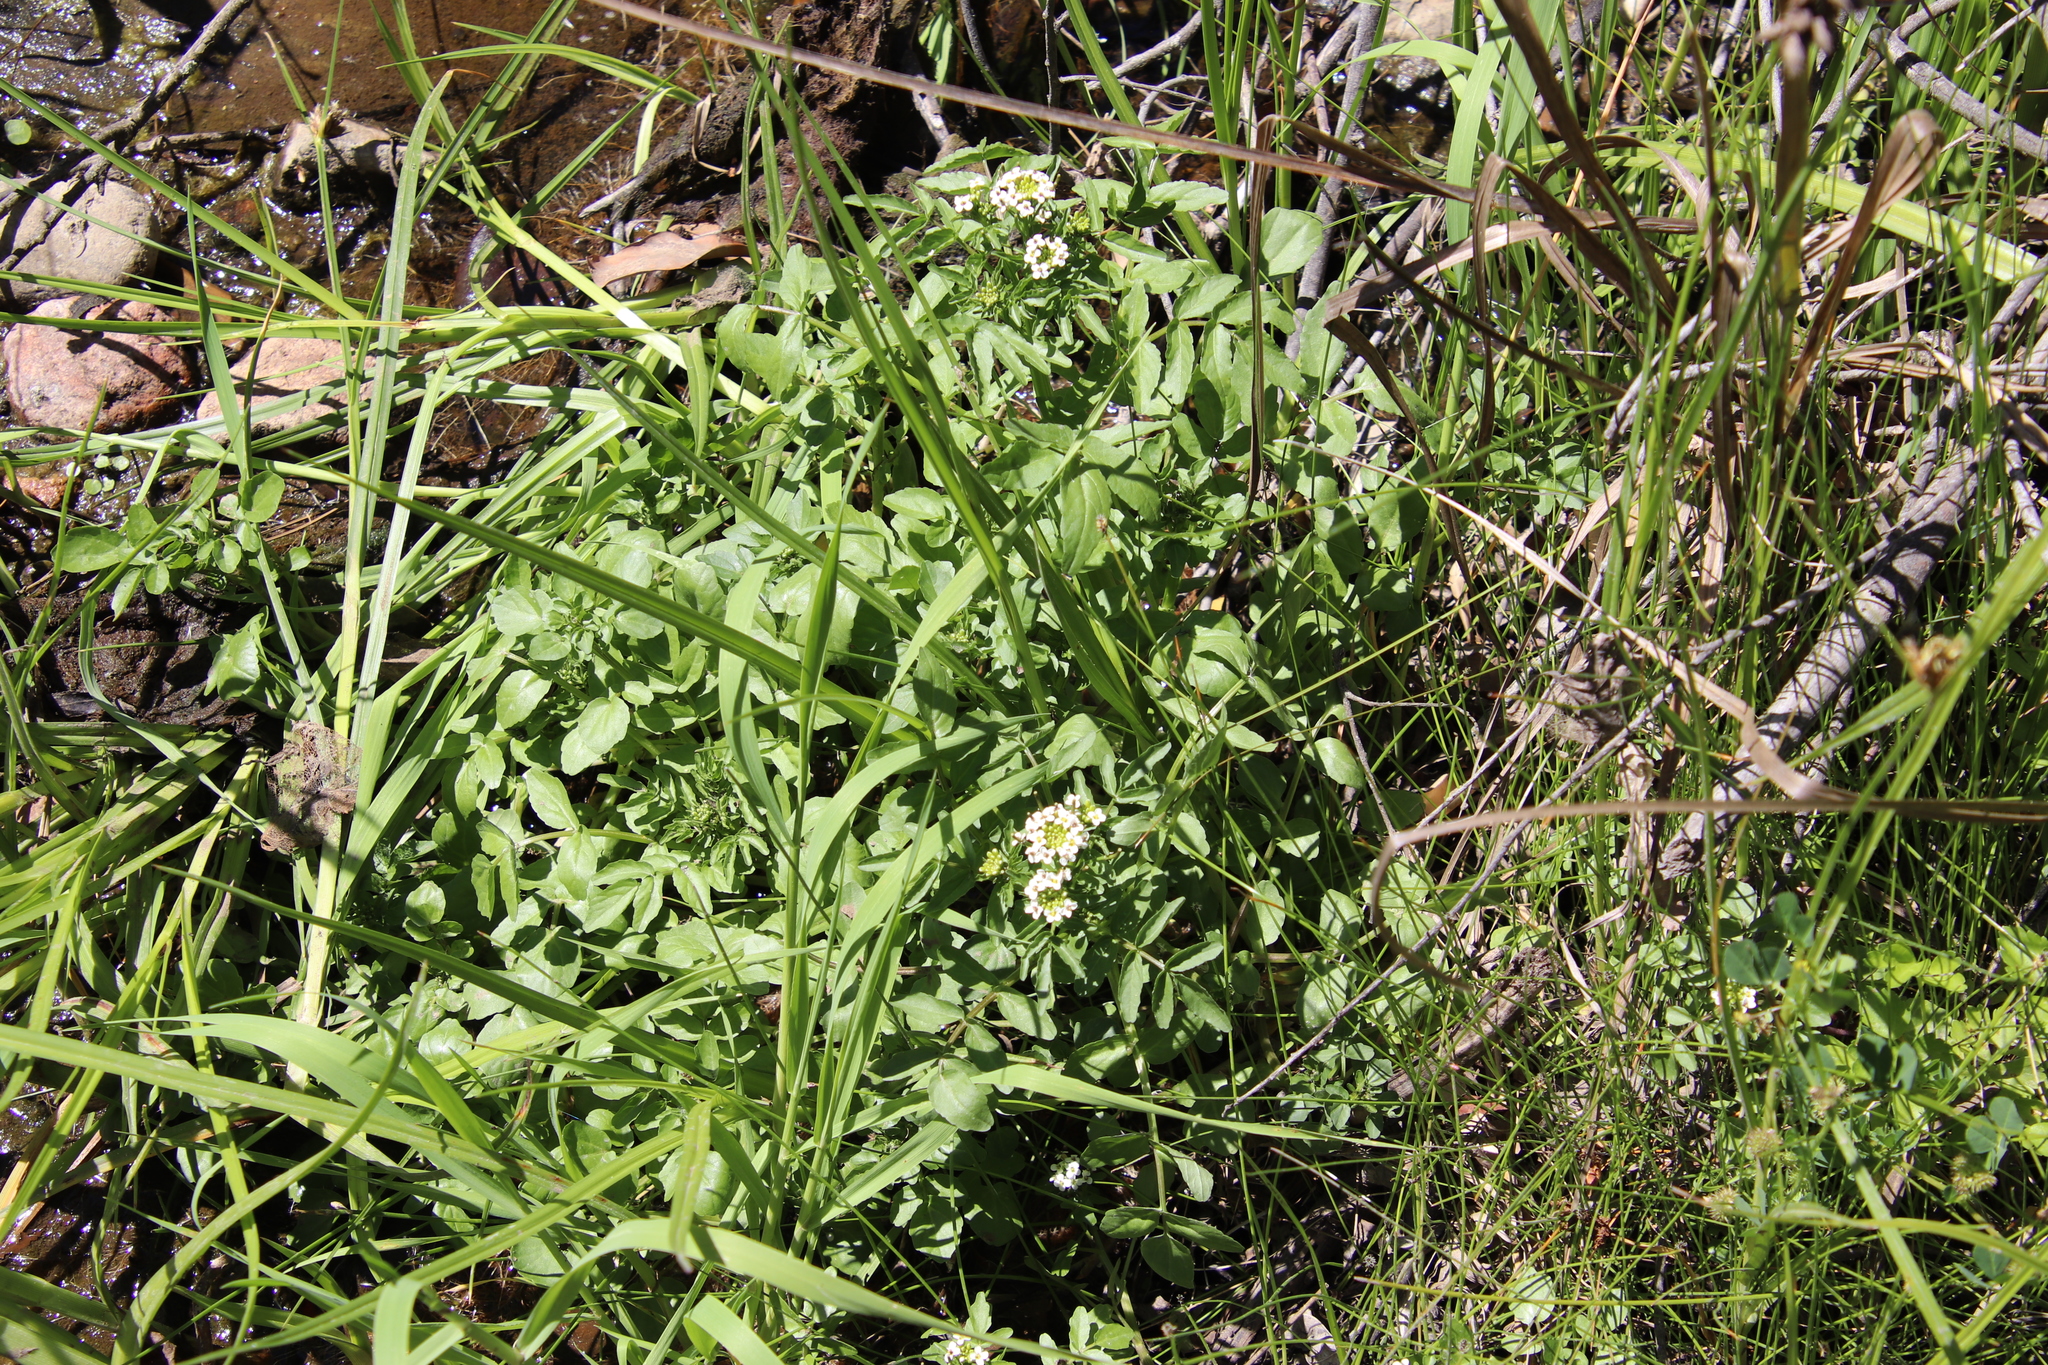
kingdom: Plantae
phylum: Tracheophyta
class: Magnoliopsida
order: Brassicales
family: Brassicaceae
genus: Nasturtium
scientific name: Nasturtium officinale
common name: Watercress
